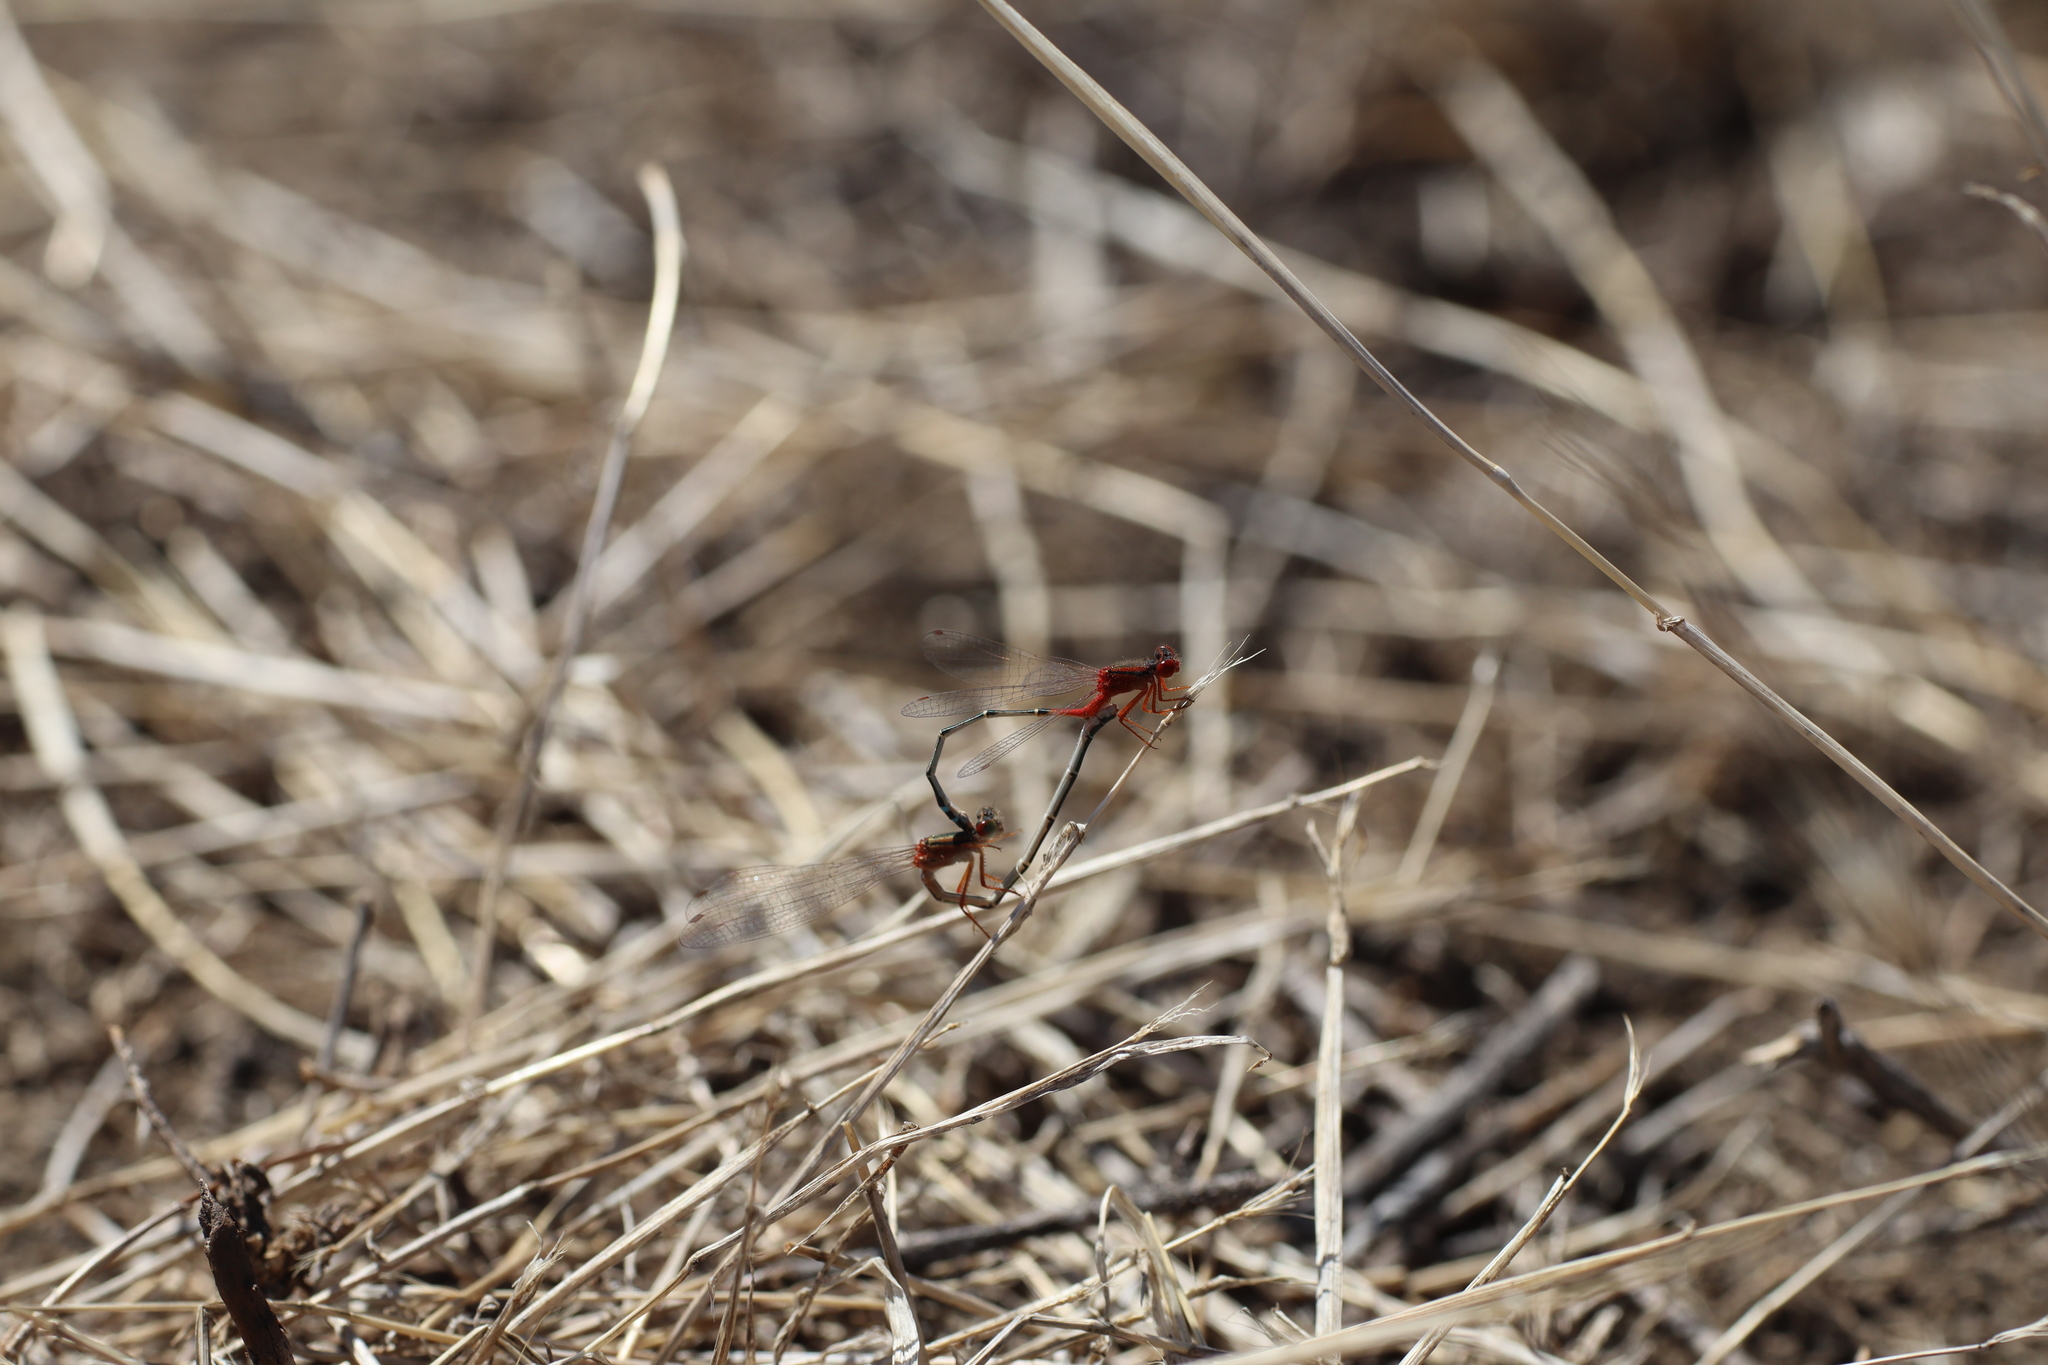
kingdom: Animalia
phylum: Arthropoda
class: Insecta
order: Odonata
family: Coenagrionidae
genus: Xanthagrion
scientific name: Xanthagrion erythroneurum
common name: Red and blue damsel
